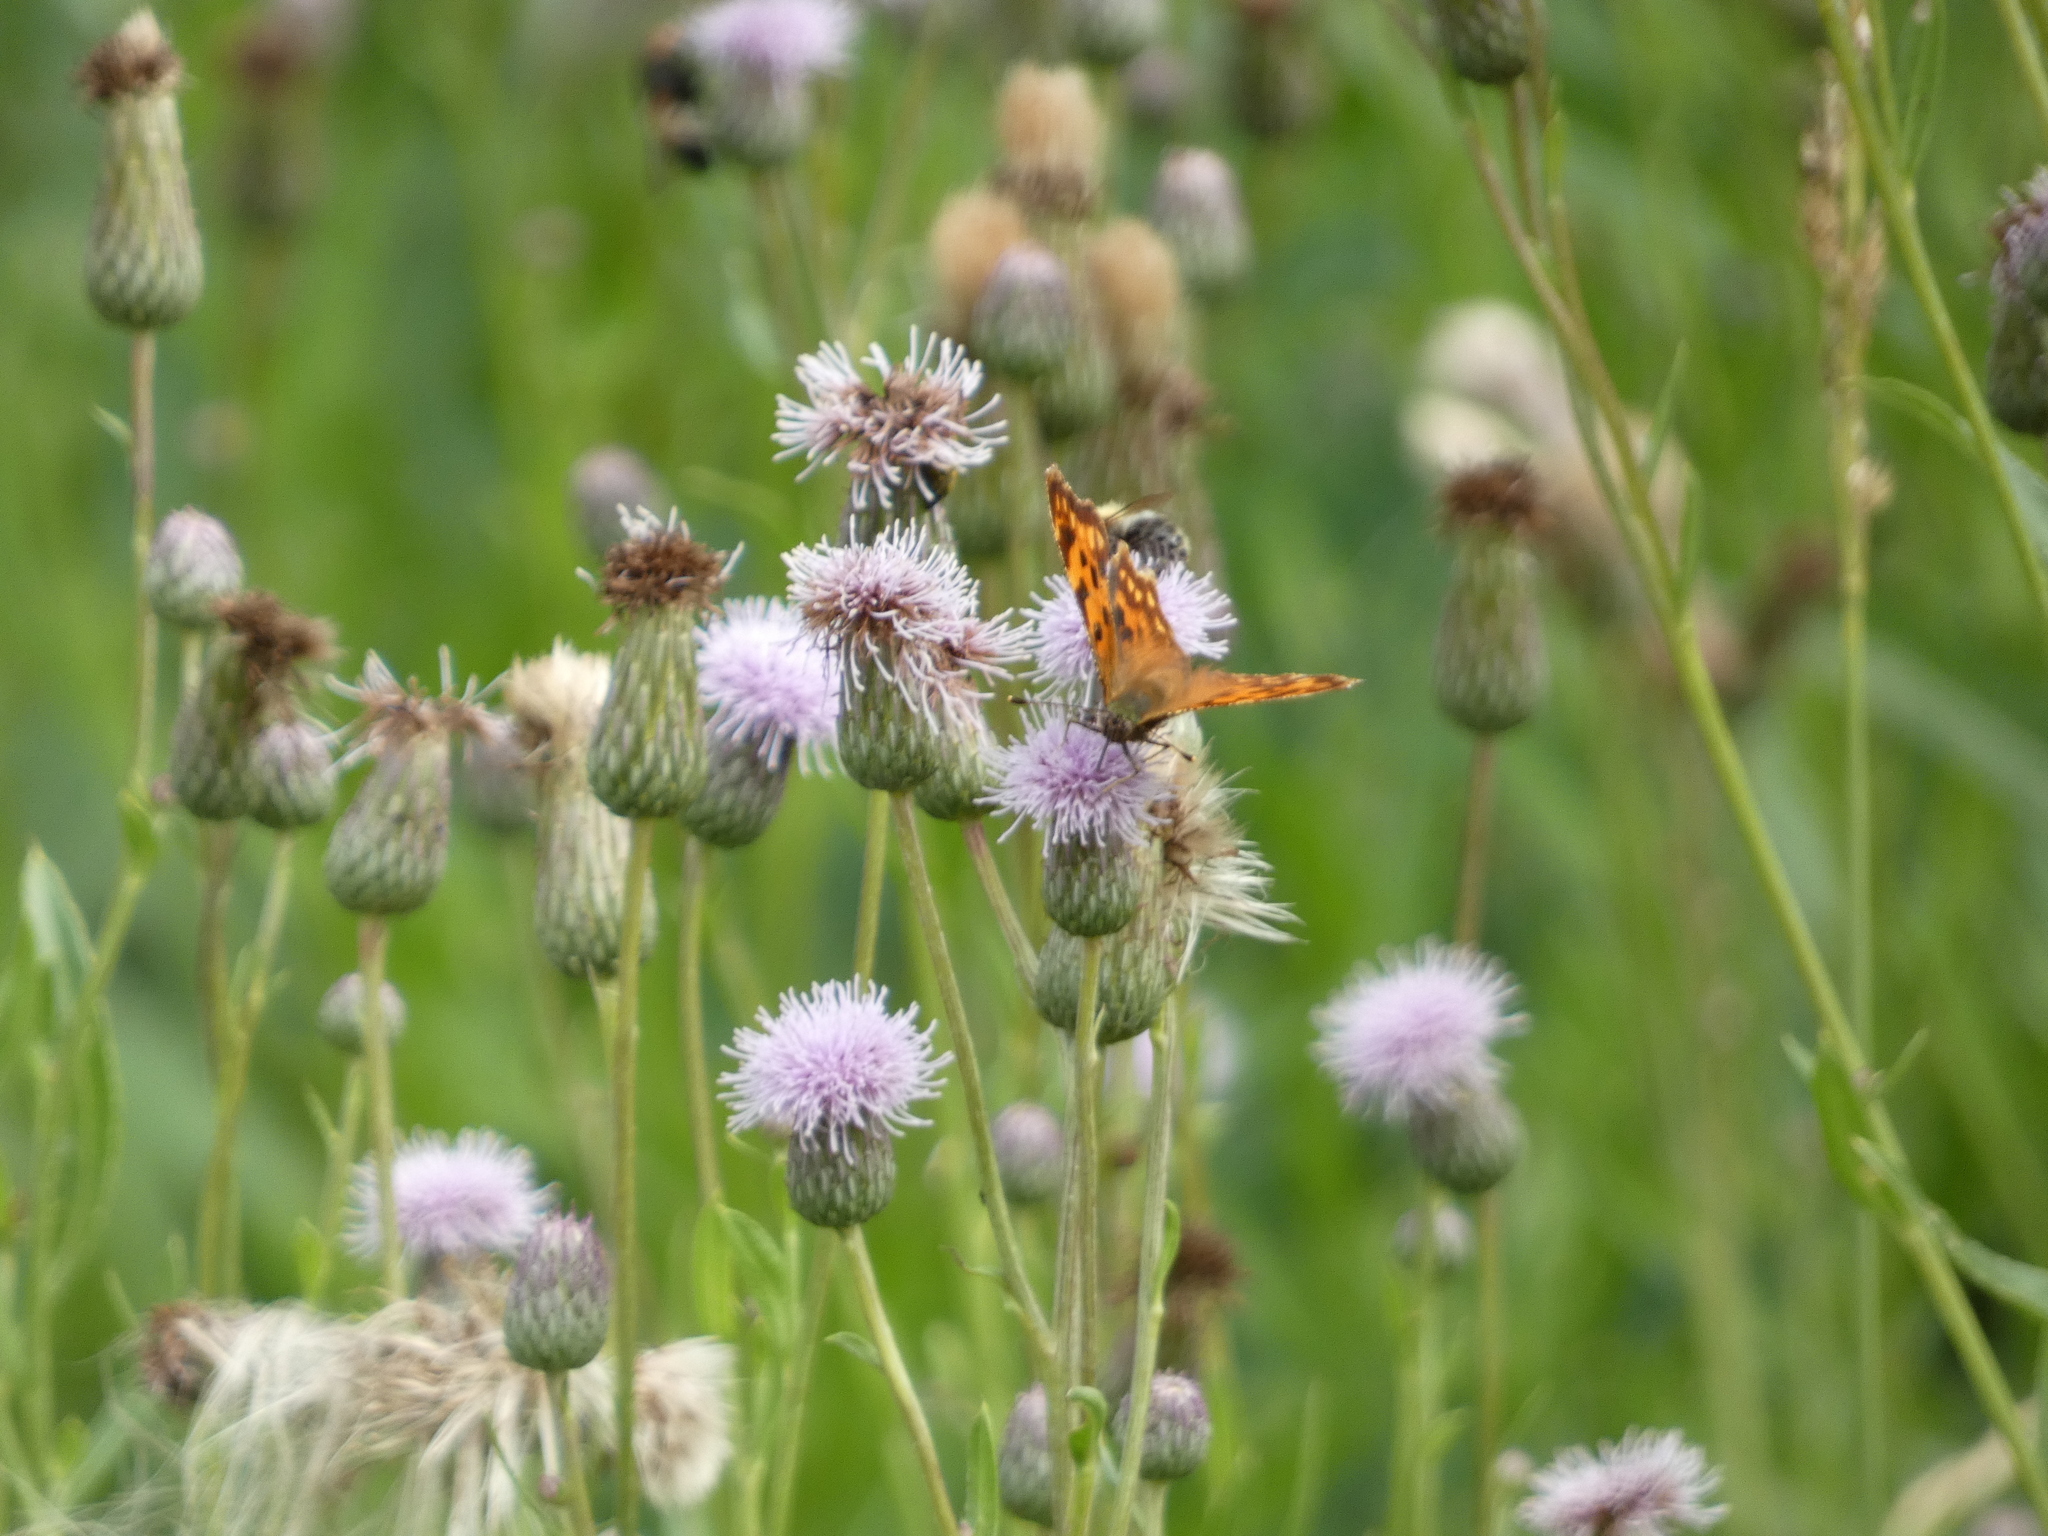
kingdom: Animalia
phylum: Arthropoda
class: Insecta
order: Lepidoptera
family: Nymphalidae
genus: Polygonia
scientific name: Polygonia c-album
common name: Comma
